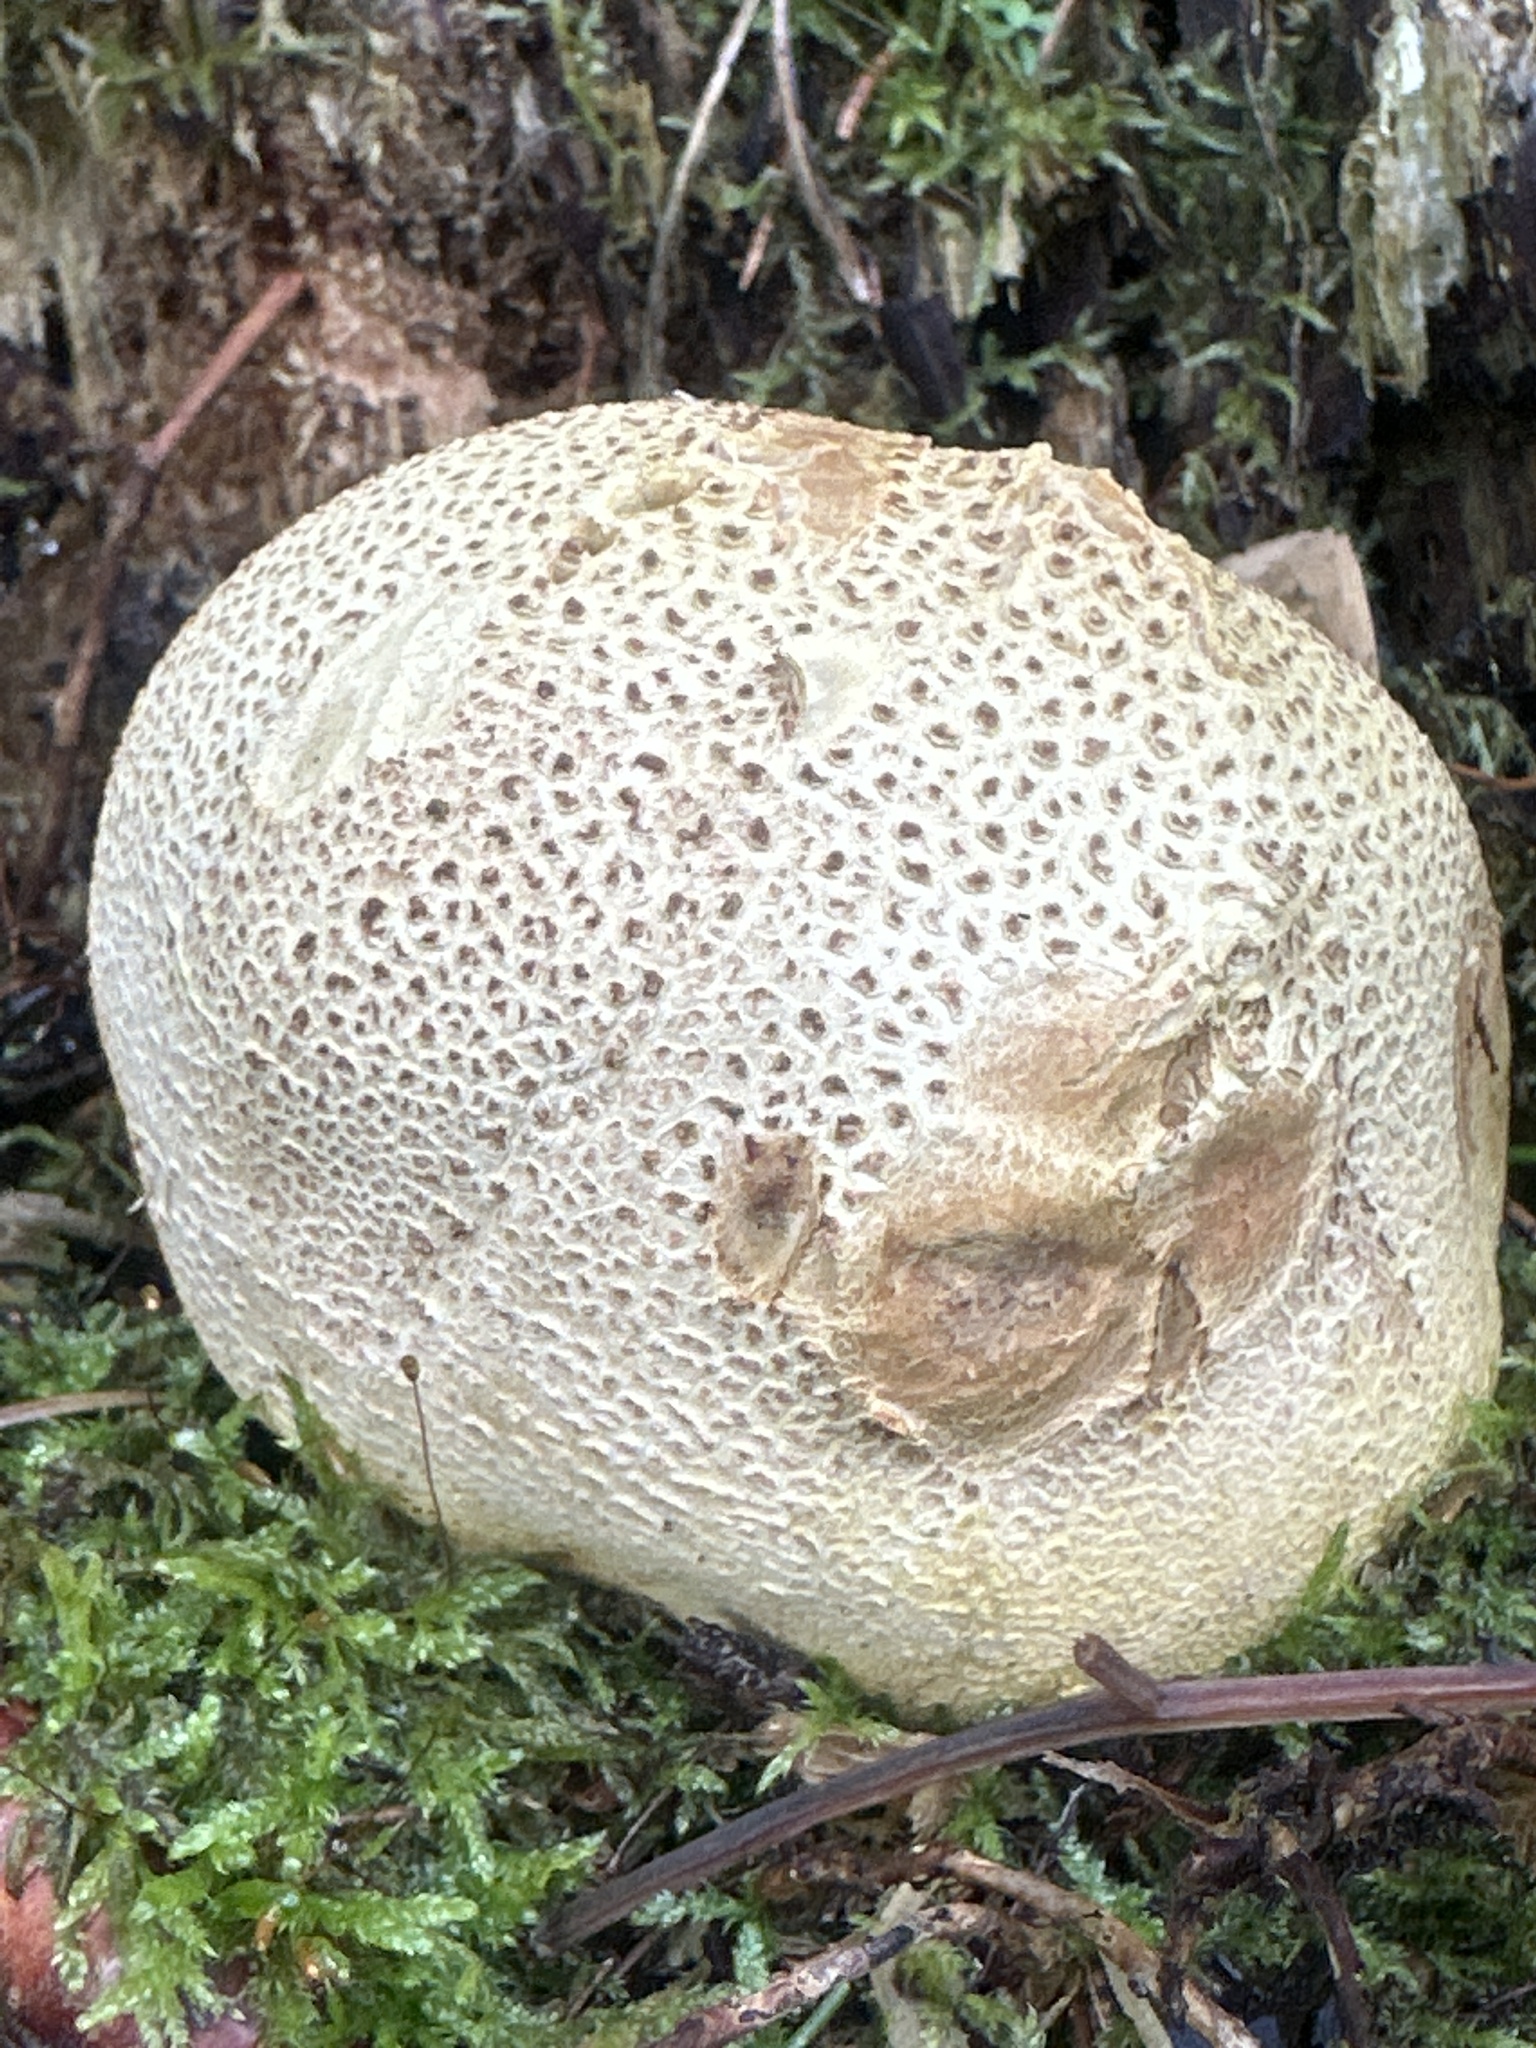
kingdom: Fungi
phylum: Basidiomycota
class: Agaricomycetes
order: Boletales
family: Sclerodermataceae
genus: Scleroderma
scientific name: Scleroderma citrinum
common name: Common earthball
